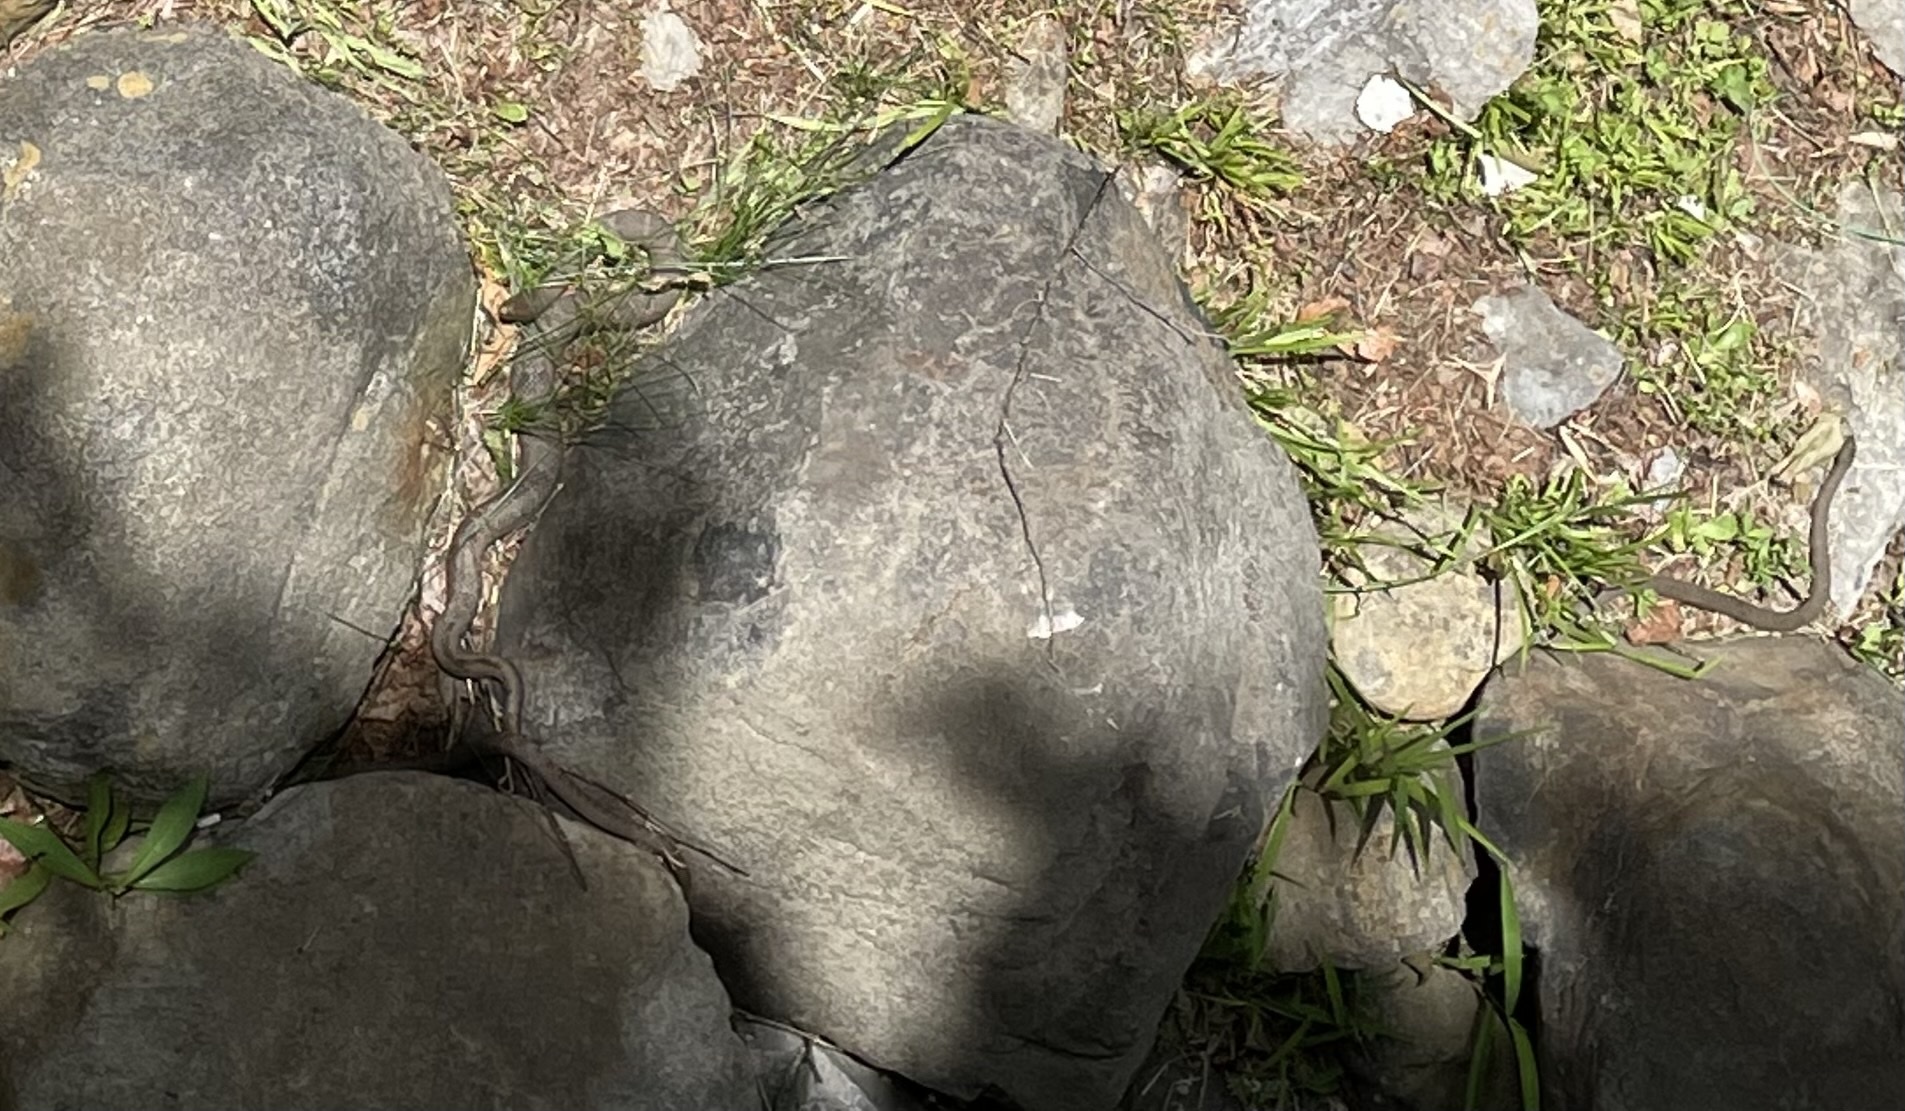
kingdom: Animalia
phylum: Chordata
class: Squamata
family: Colubridae
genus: Nerodia
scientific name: Nerodia sipedon
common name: Northern water snake
